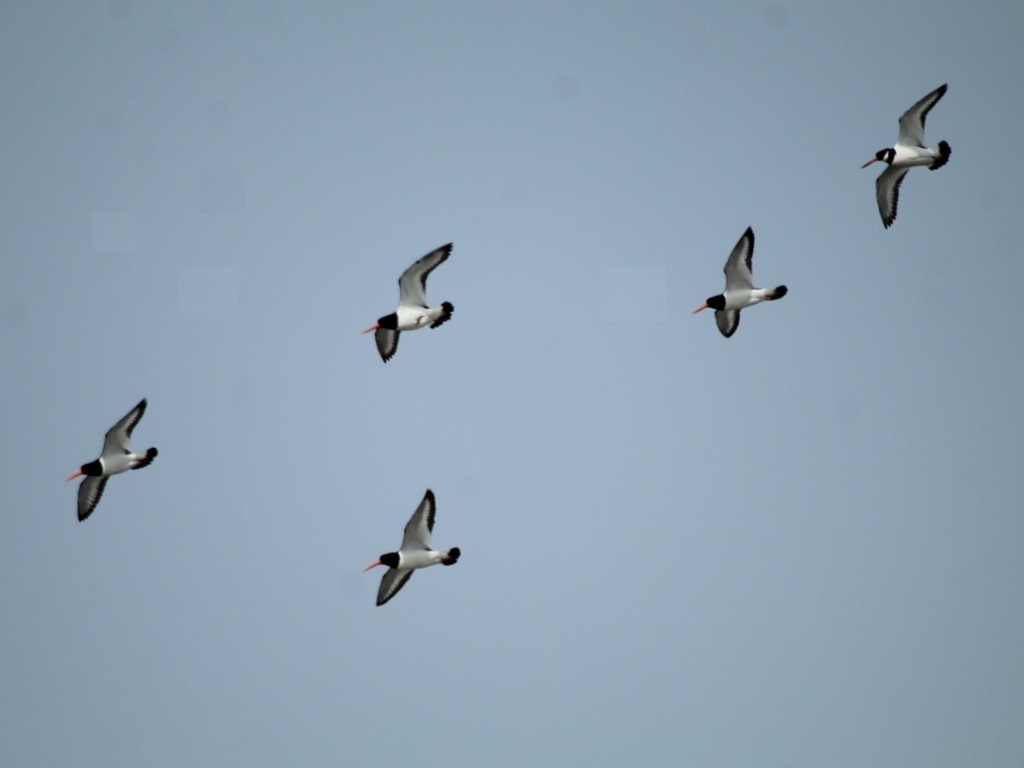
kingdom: Animalia
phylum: Chordata
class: Aves
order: Charadriiformes
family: Haematopodidae
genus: Haematopus
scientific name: Haematopus ostralegus
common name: Eurasian oystercatcher
